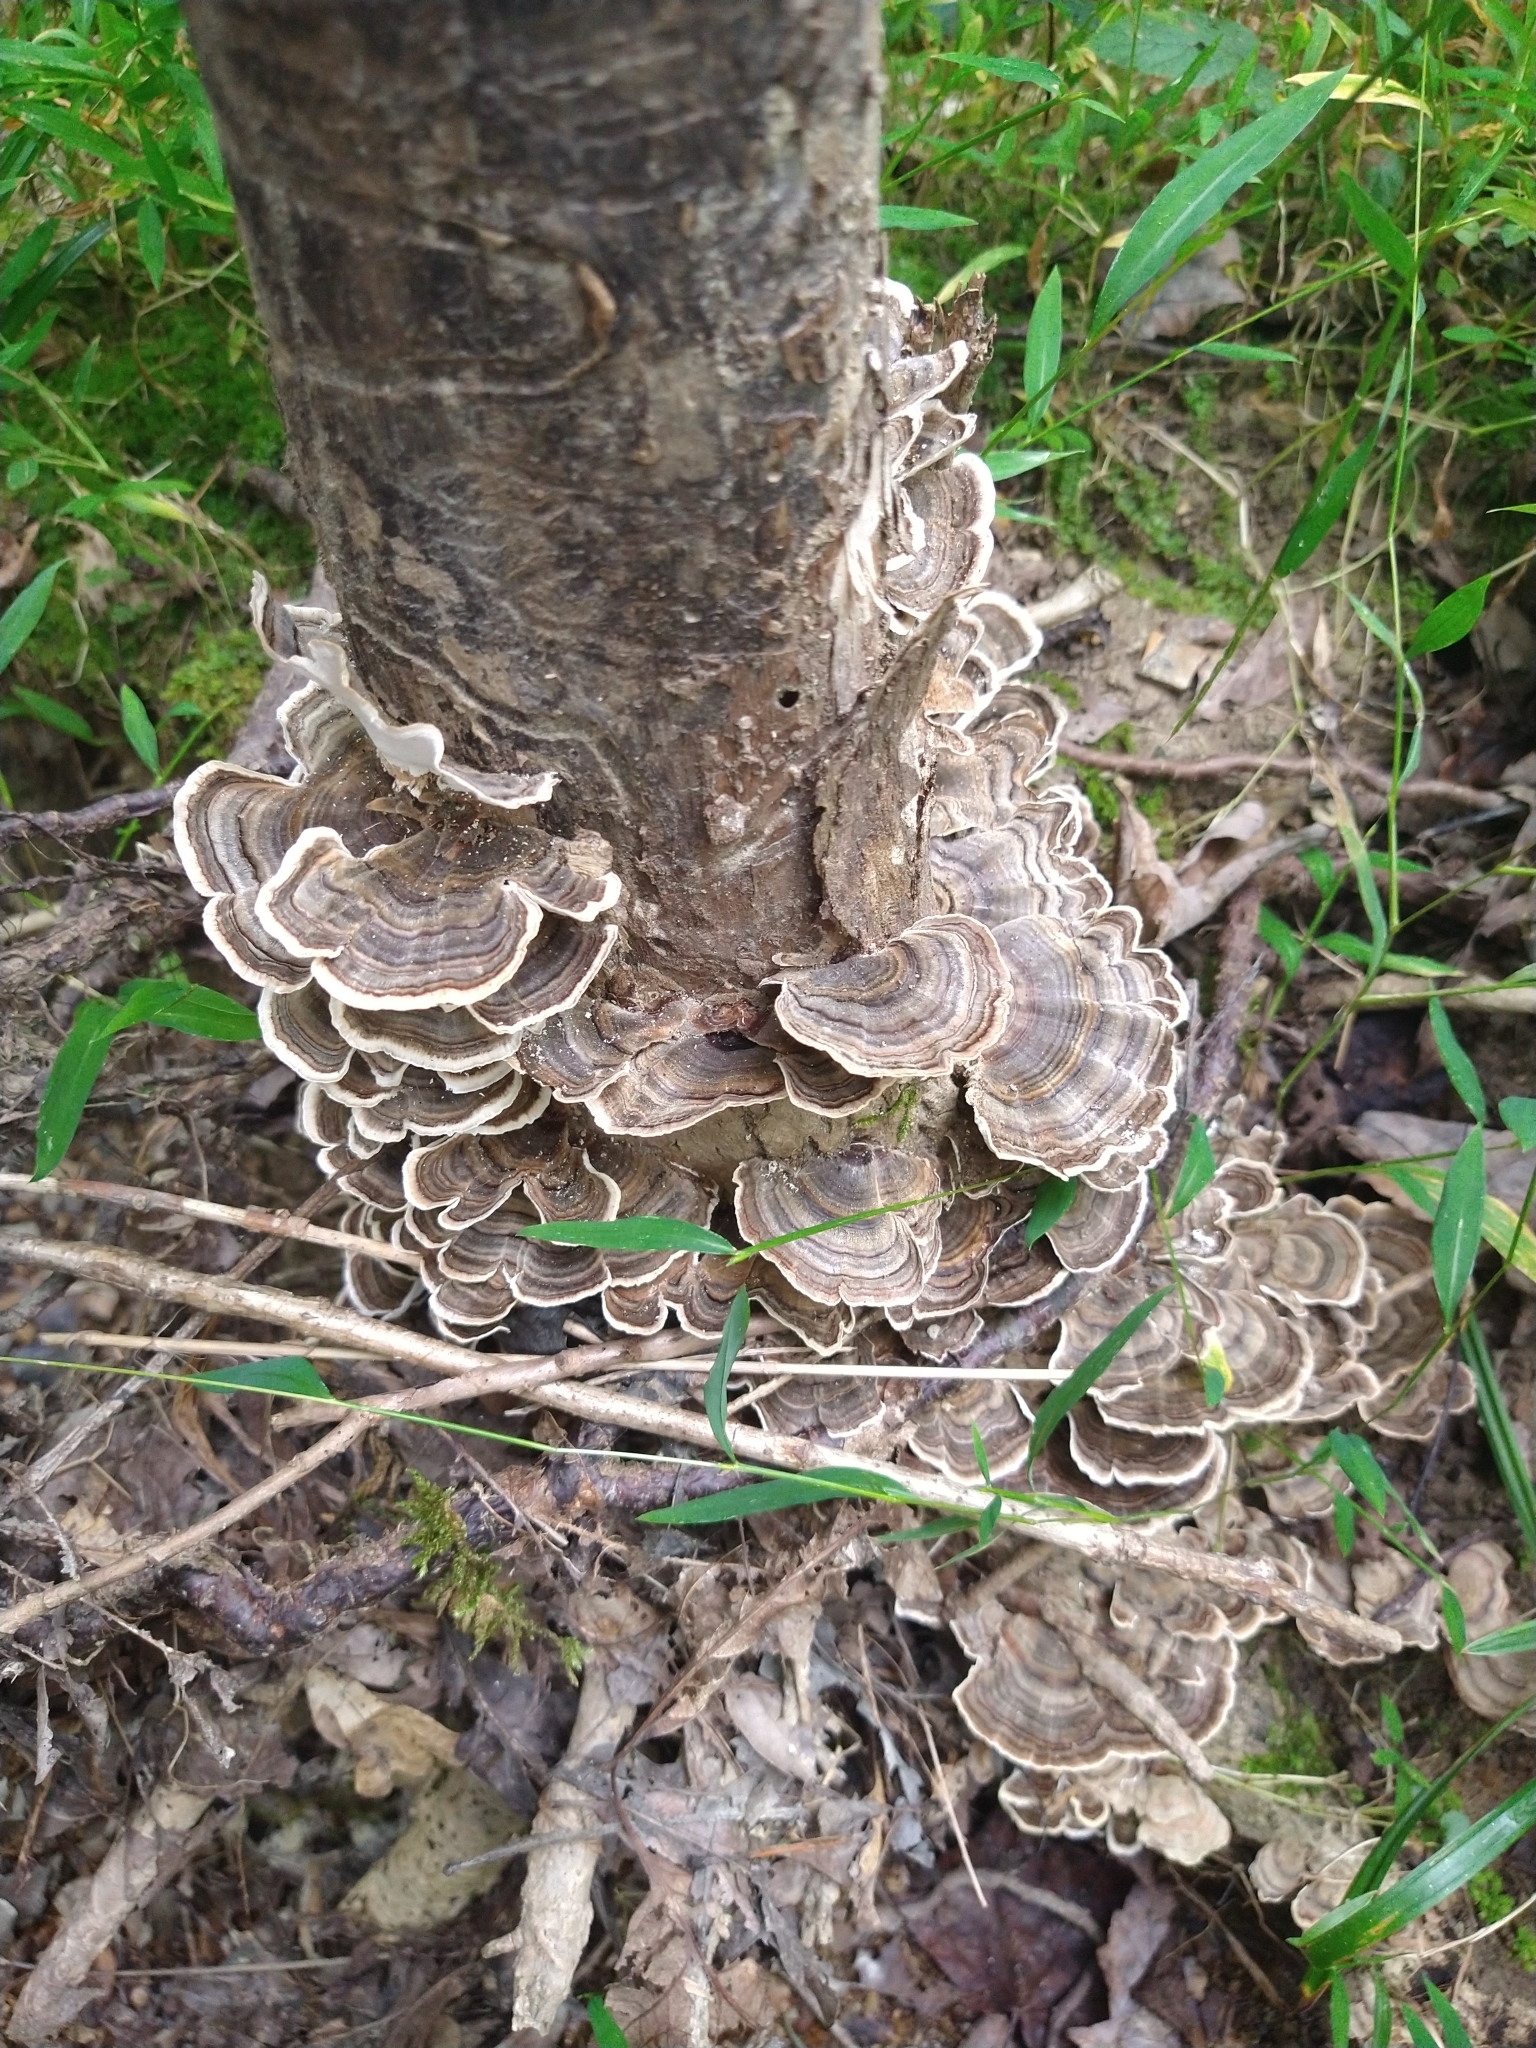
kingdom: Fungi
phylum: Basidiomycota
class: Agaricomycetes
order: Polyporales
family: Polyporaceae
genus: Trametes
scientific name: Trametes versicolor
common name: Turkeytail
